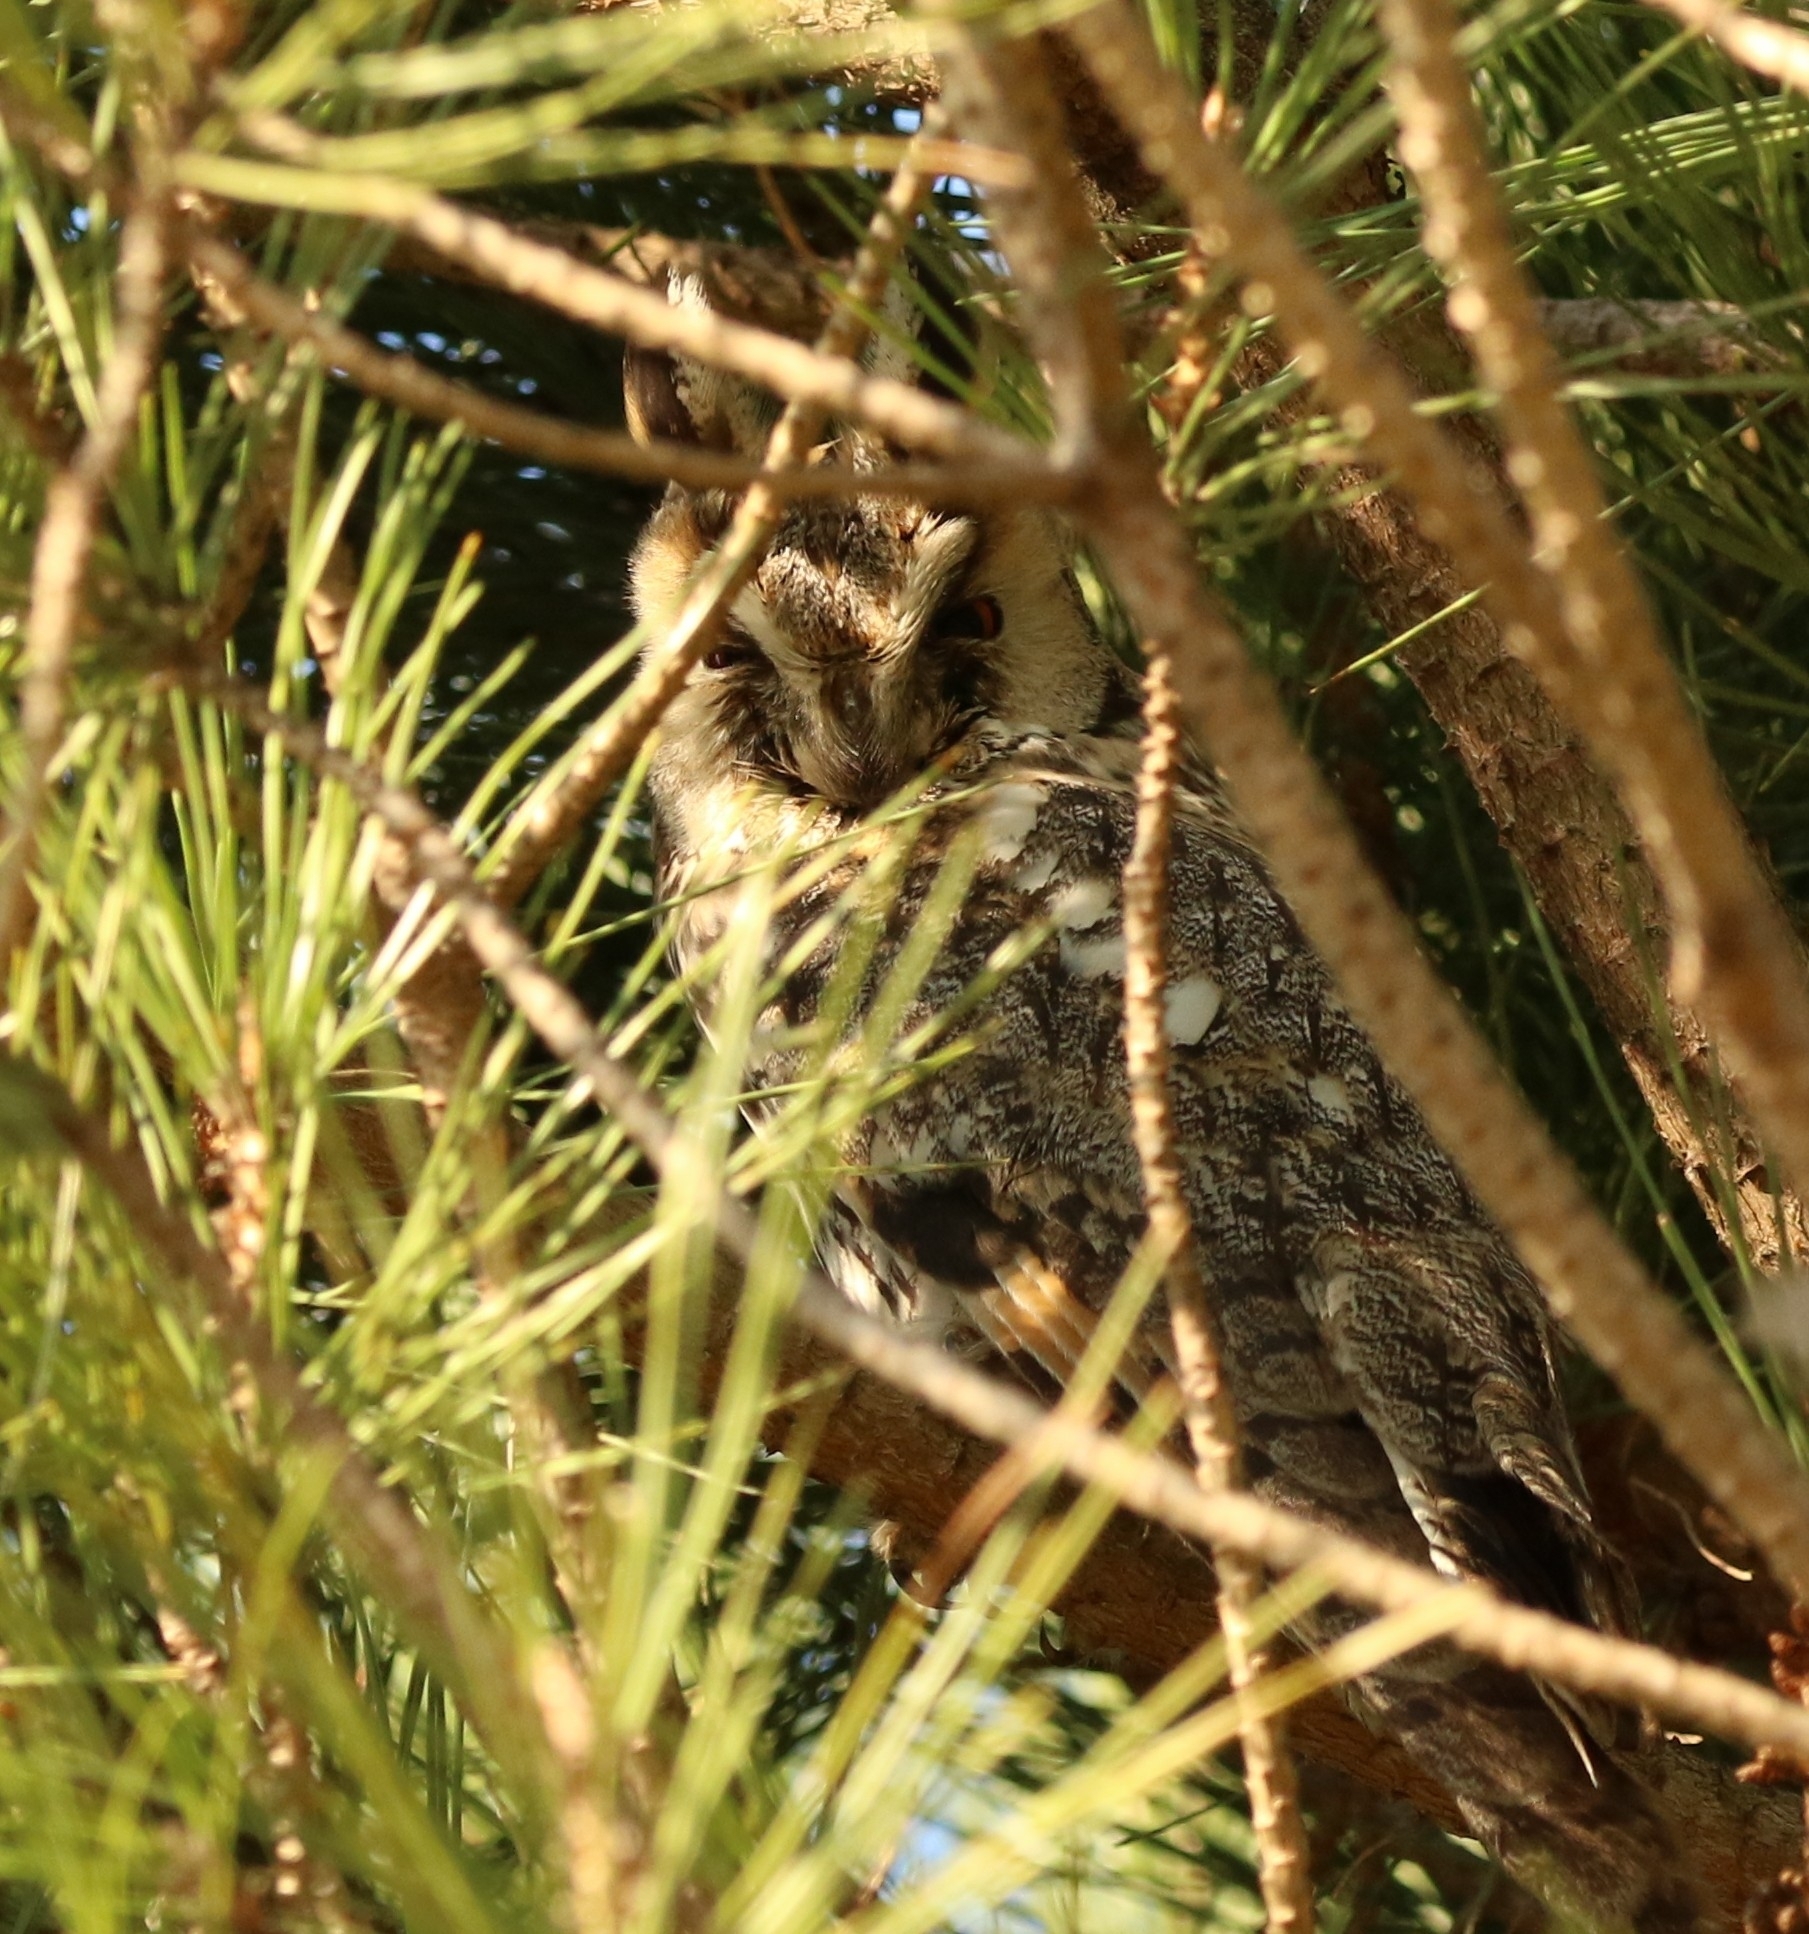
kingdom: Animalia
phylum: Chordata
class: Aves
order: Strigiformes
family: Strigidae
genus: Asio
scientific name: Asio otus
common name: Long-eared owl
